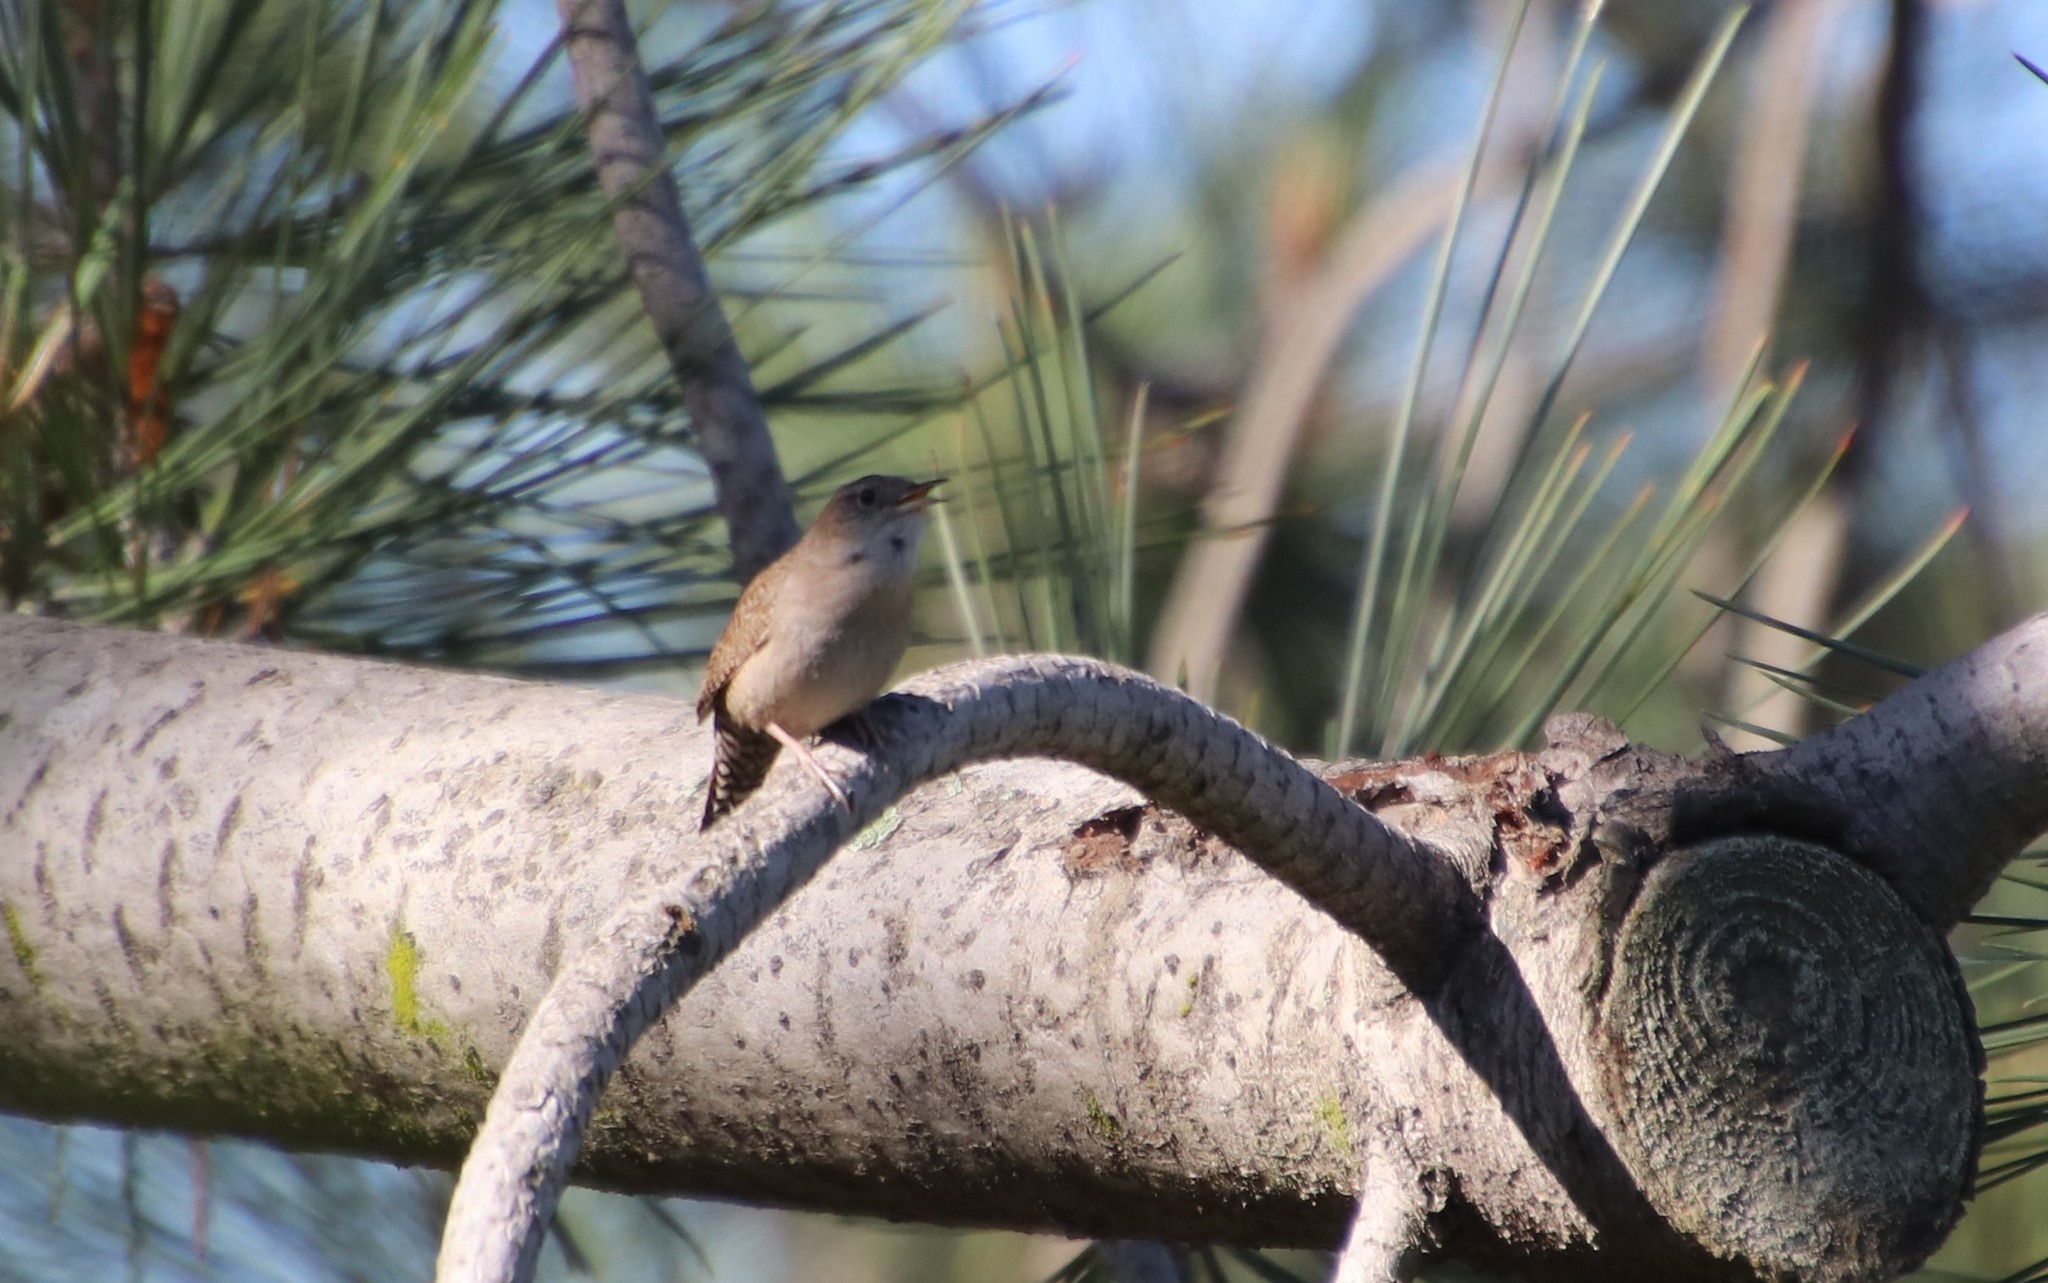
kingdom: Animalia
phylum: Chordata
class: Aves
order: Passeriformes
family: Troglodytidae
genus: Troglodytes
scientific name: Troglodytes aedon
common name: House wren
